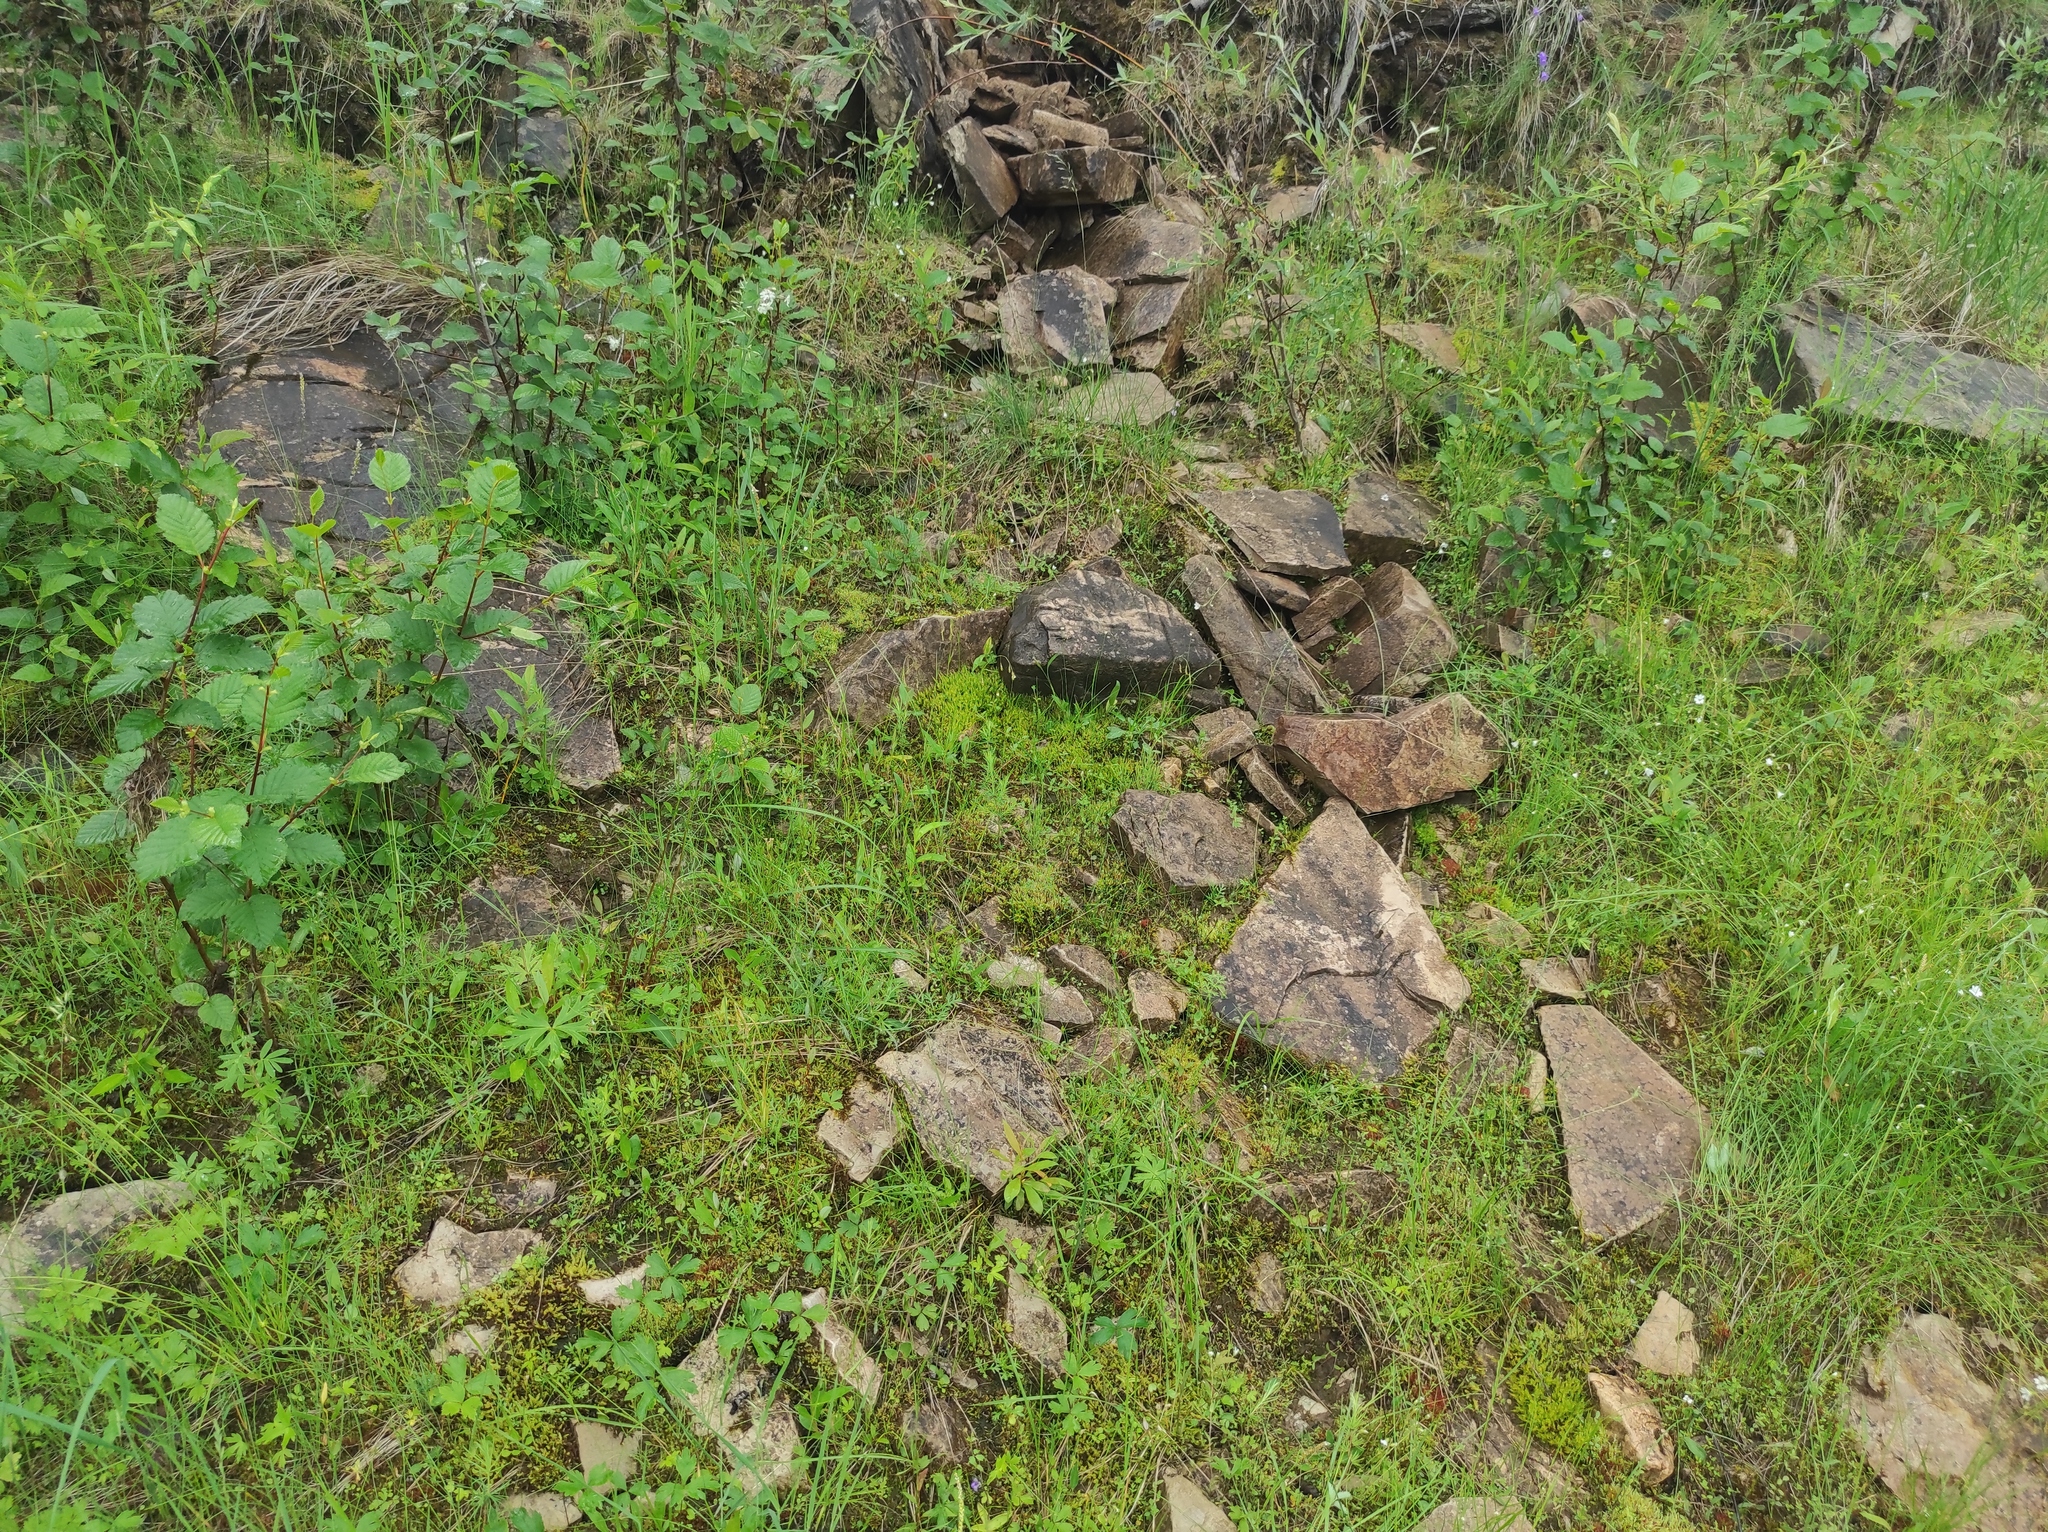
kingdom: Plantae
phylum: Tracheophyta
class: Magnoliopsida
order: Fagales
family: Betulaceae
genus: Alnus
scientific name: Alnus alnobetula
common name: Green alder
